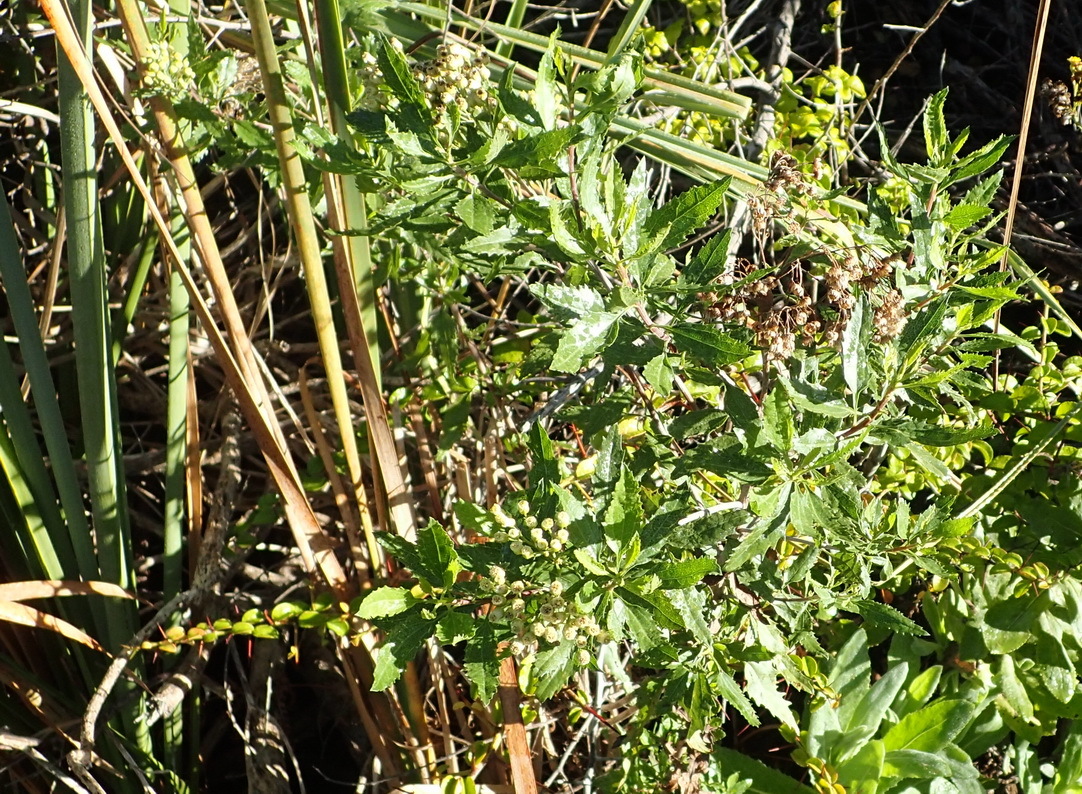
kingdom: Plantae
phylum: Tracheophyta
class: Magnoliopsida
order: Asterales
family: Asteraceae
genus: Nidorella
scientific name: Nidorella ivifolia
